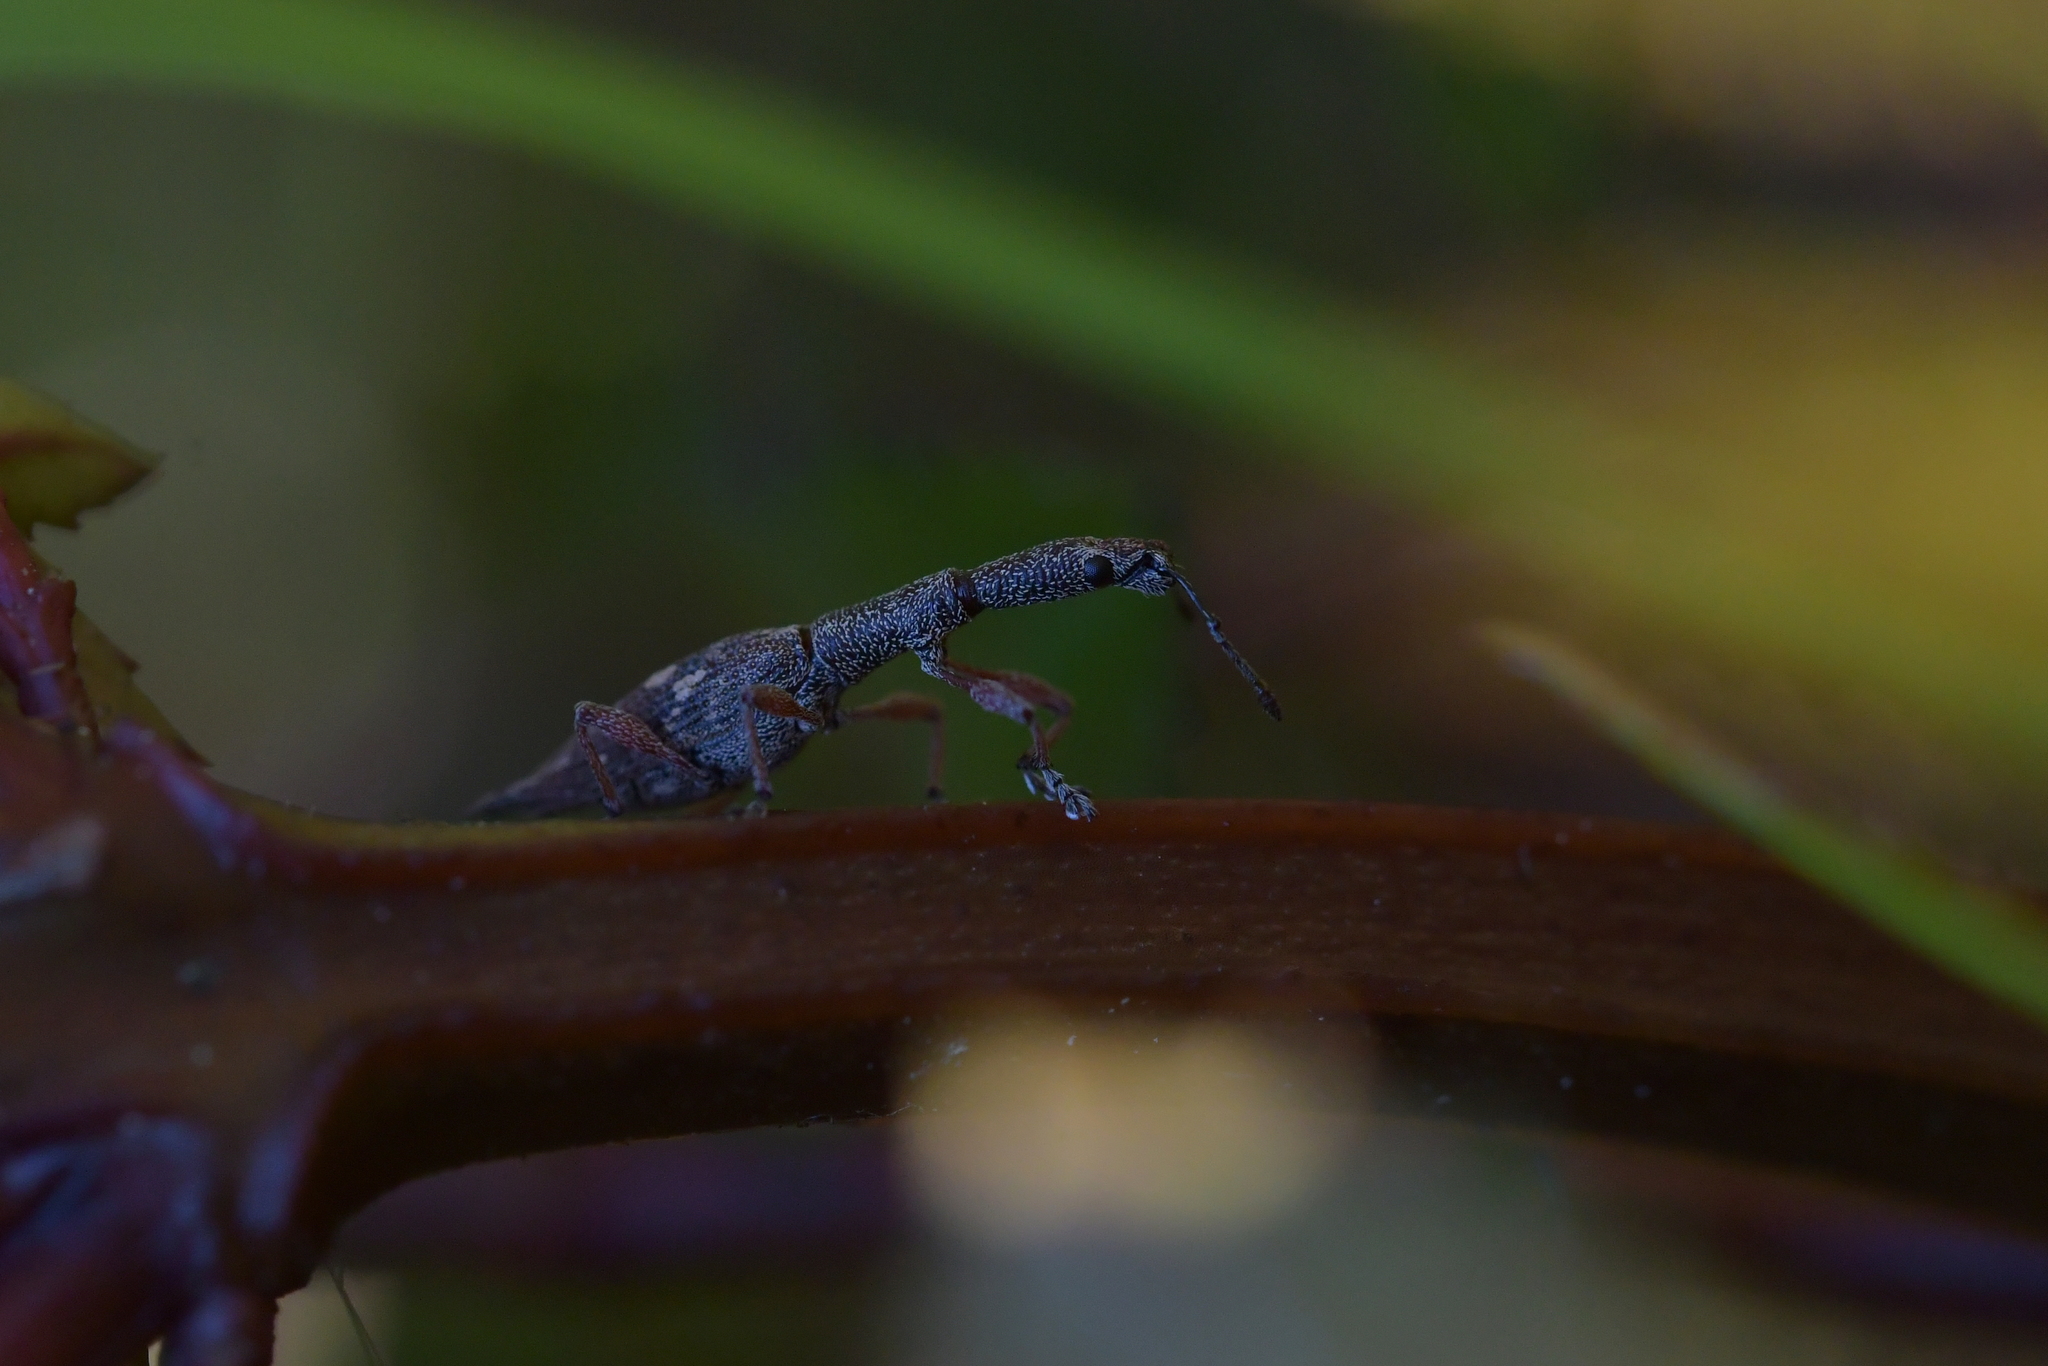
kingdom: Animalia
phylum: Arthropoda
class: Insecta
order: Coleoptera
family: Curculionidae
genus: Rhadinosomus
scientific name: Rhadinosomus acuminatus
